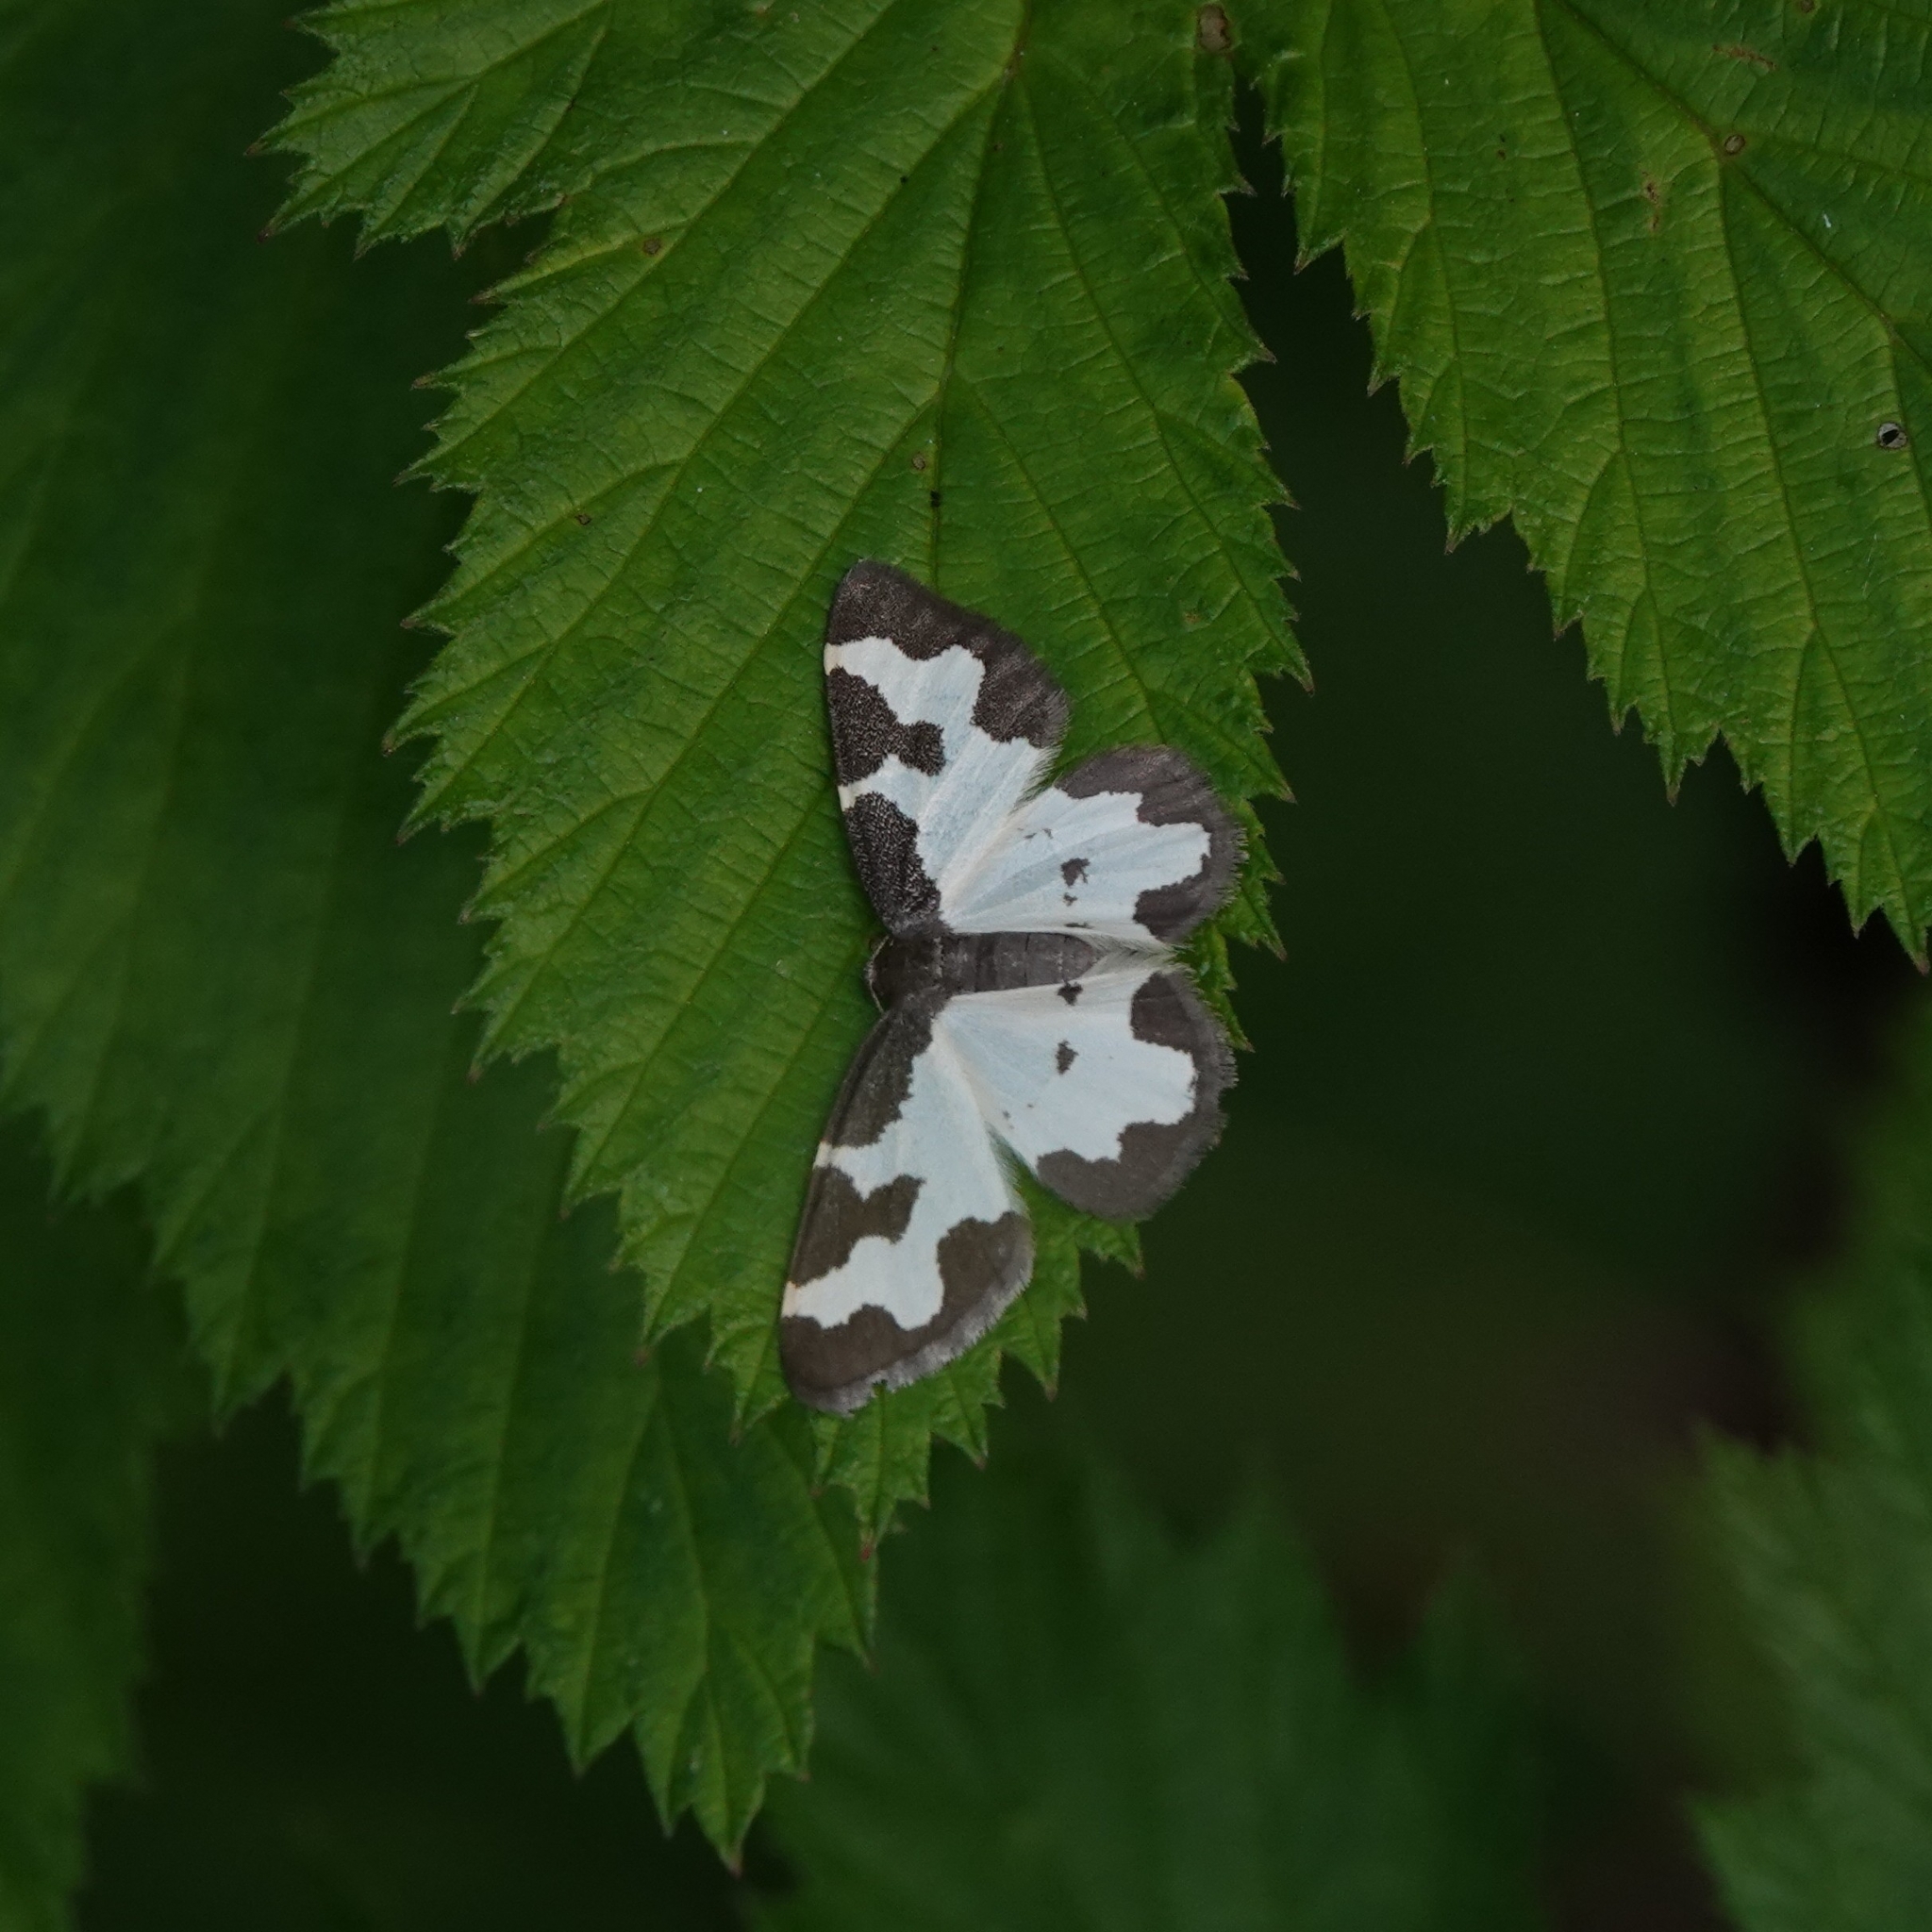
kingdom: Animalia
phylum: Arthropoda
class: Insecta
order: Lepidoptera
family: Geometridae
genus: Lomaspilis
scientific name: Lomaspilis marginata
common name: Clouded border
